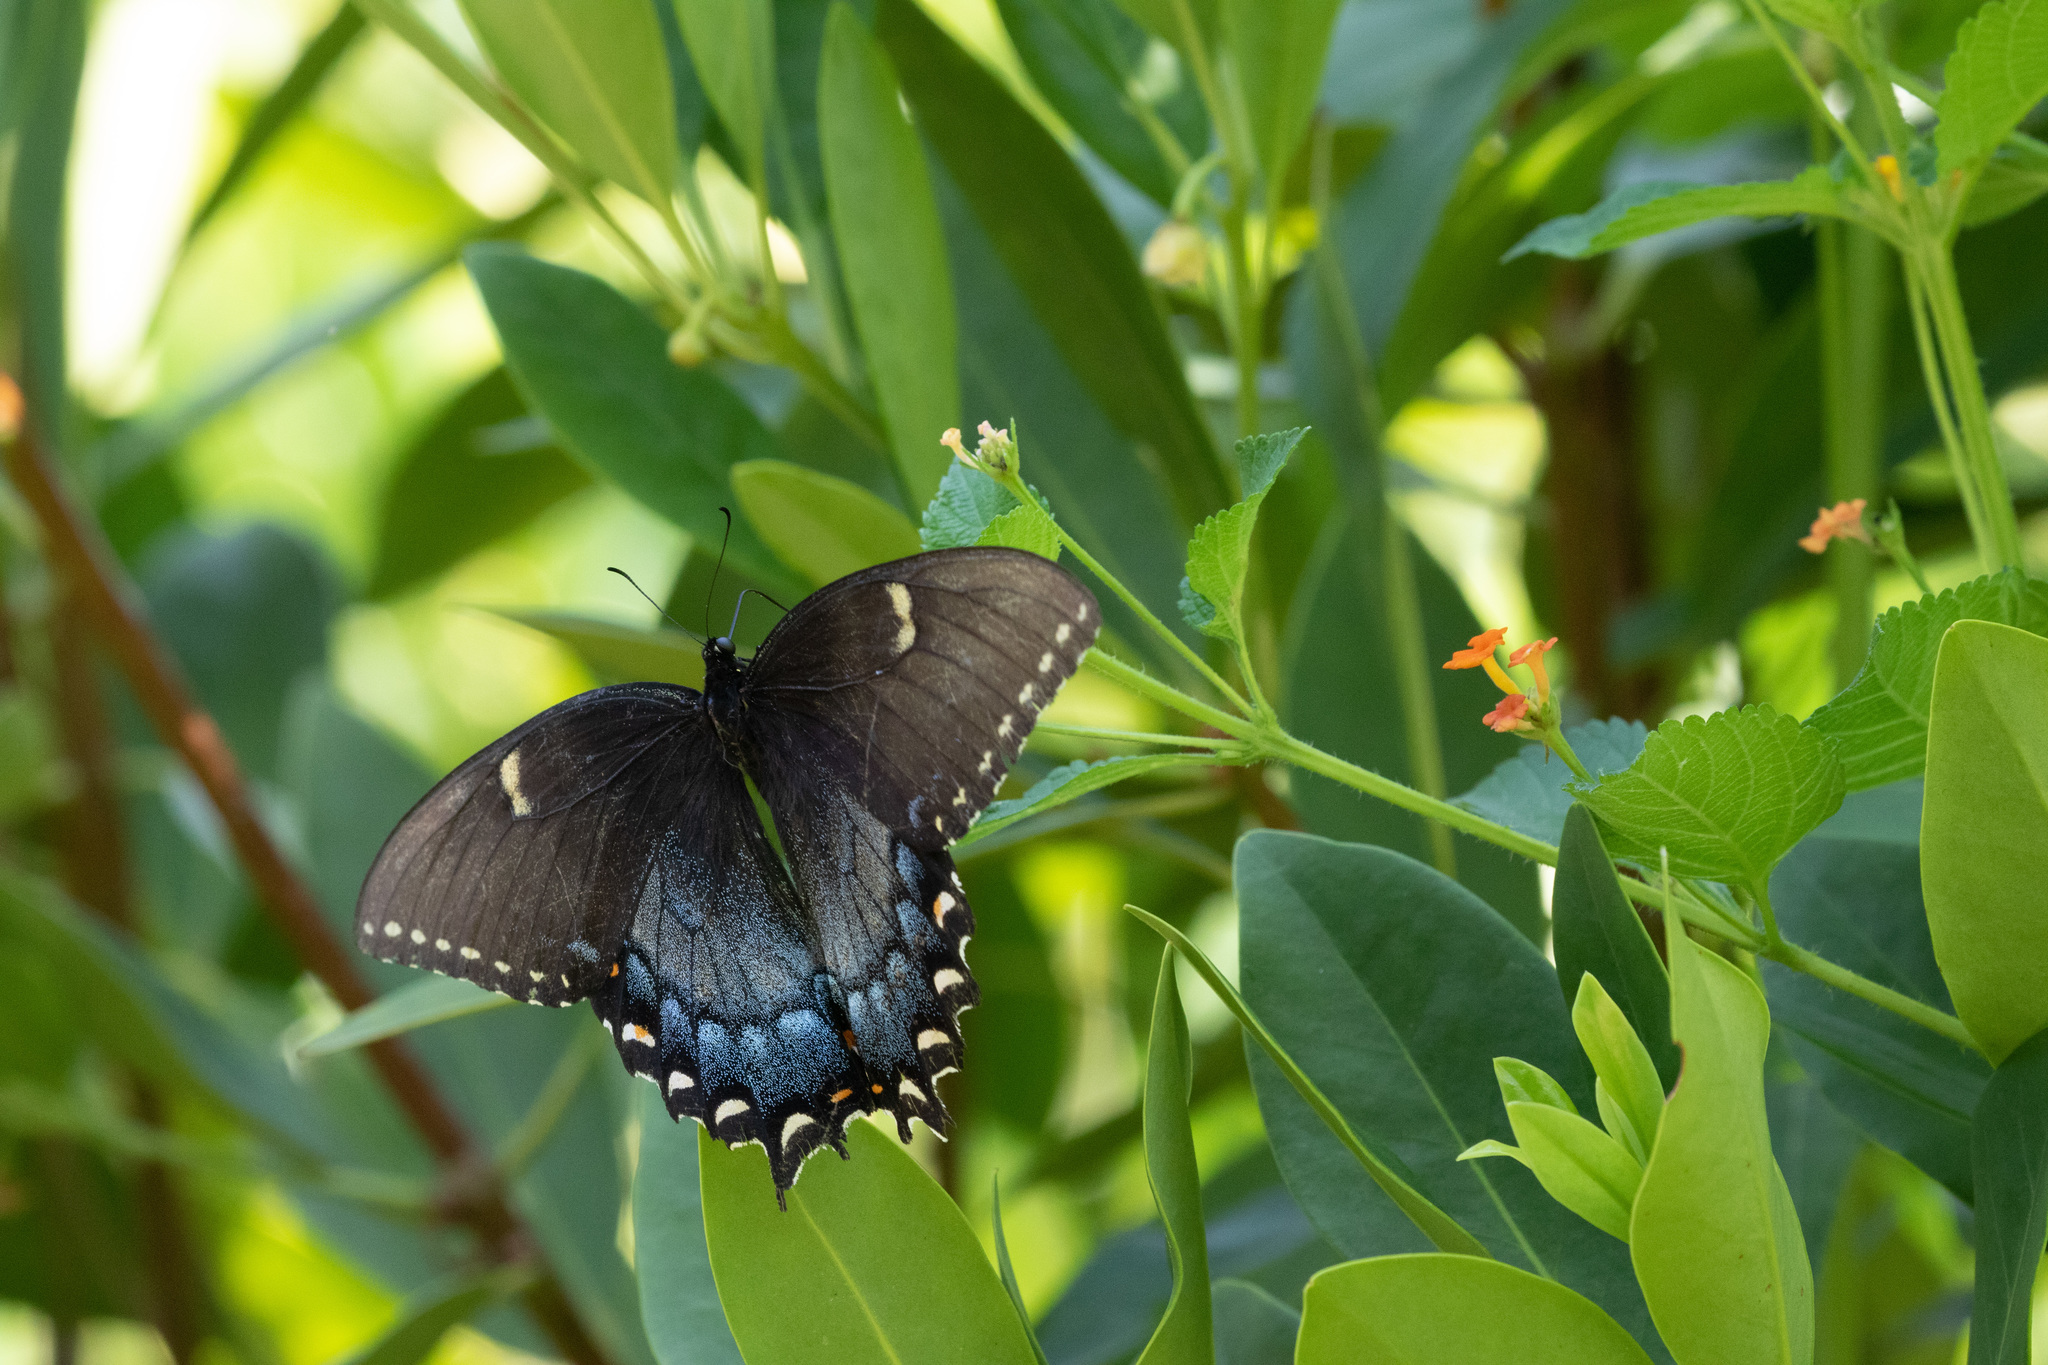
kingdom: Animalia
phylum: Arthropoda
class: Insecta
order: Lepidoptera
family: Papilionidae
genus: Papilio
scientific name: Papilio glaucus
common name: Tiger swallowtail
